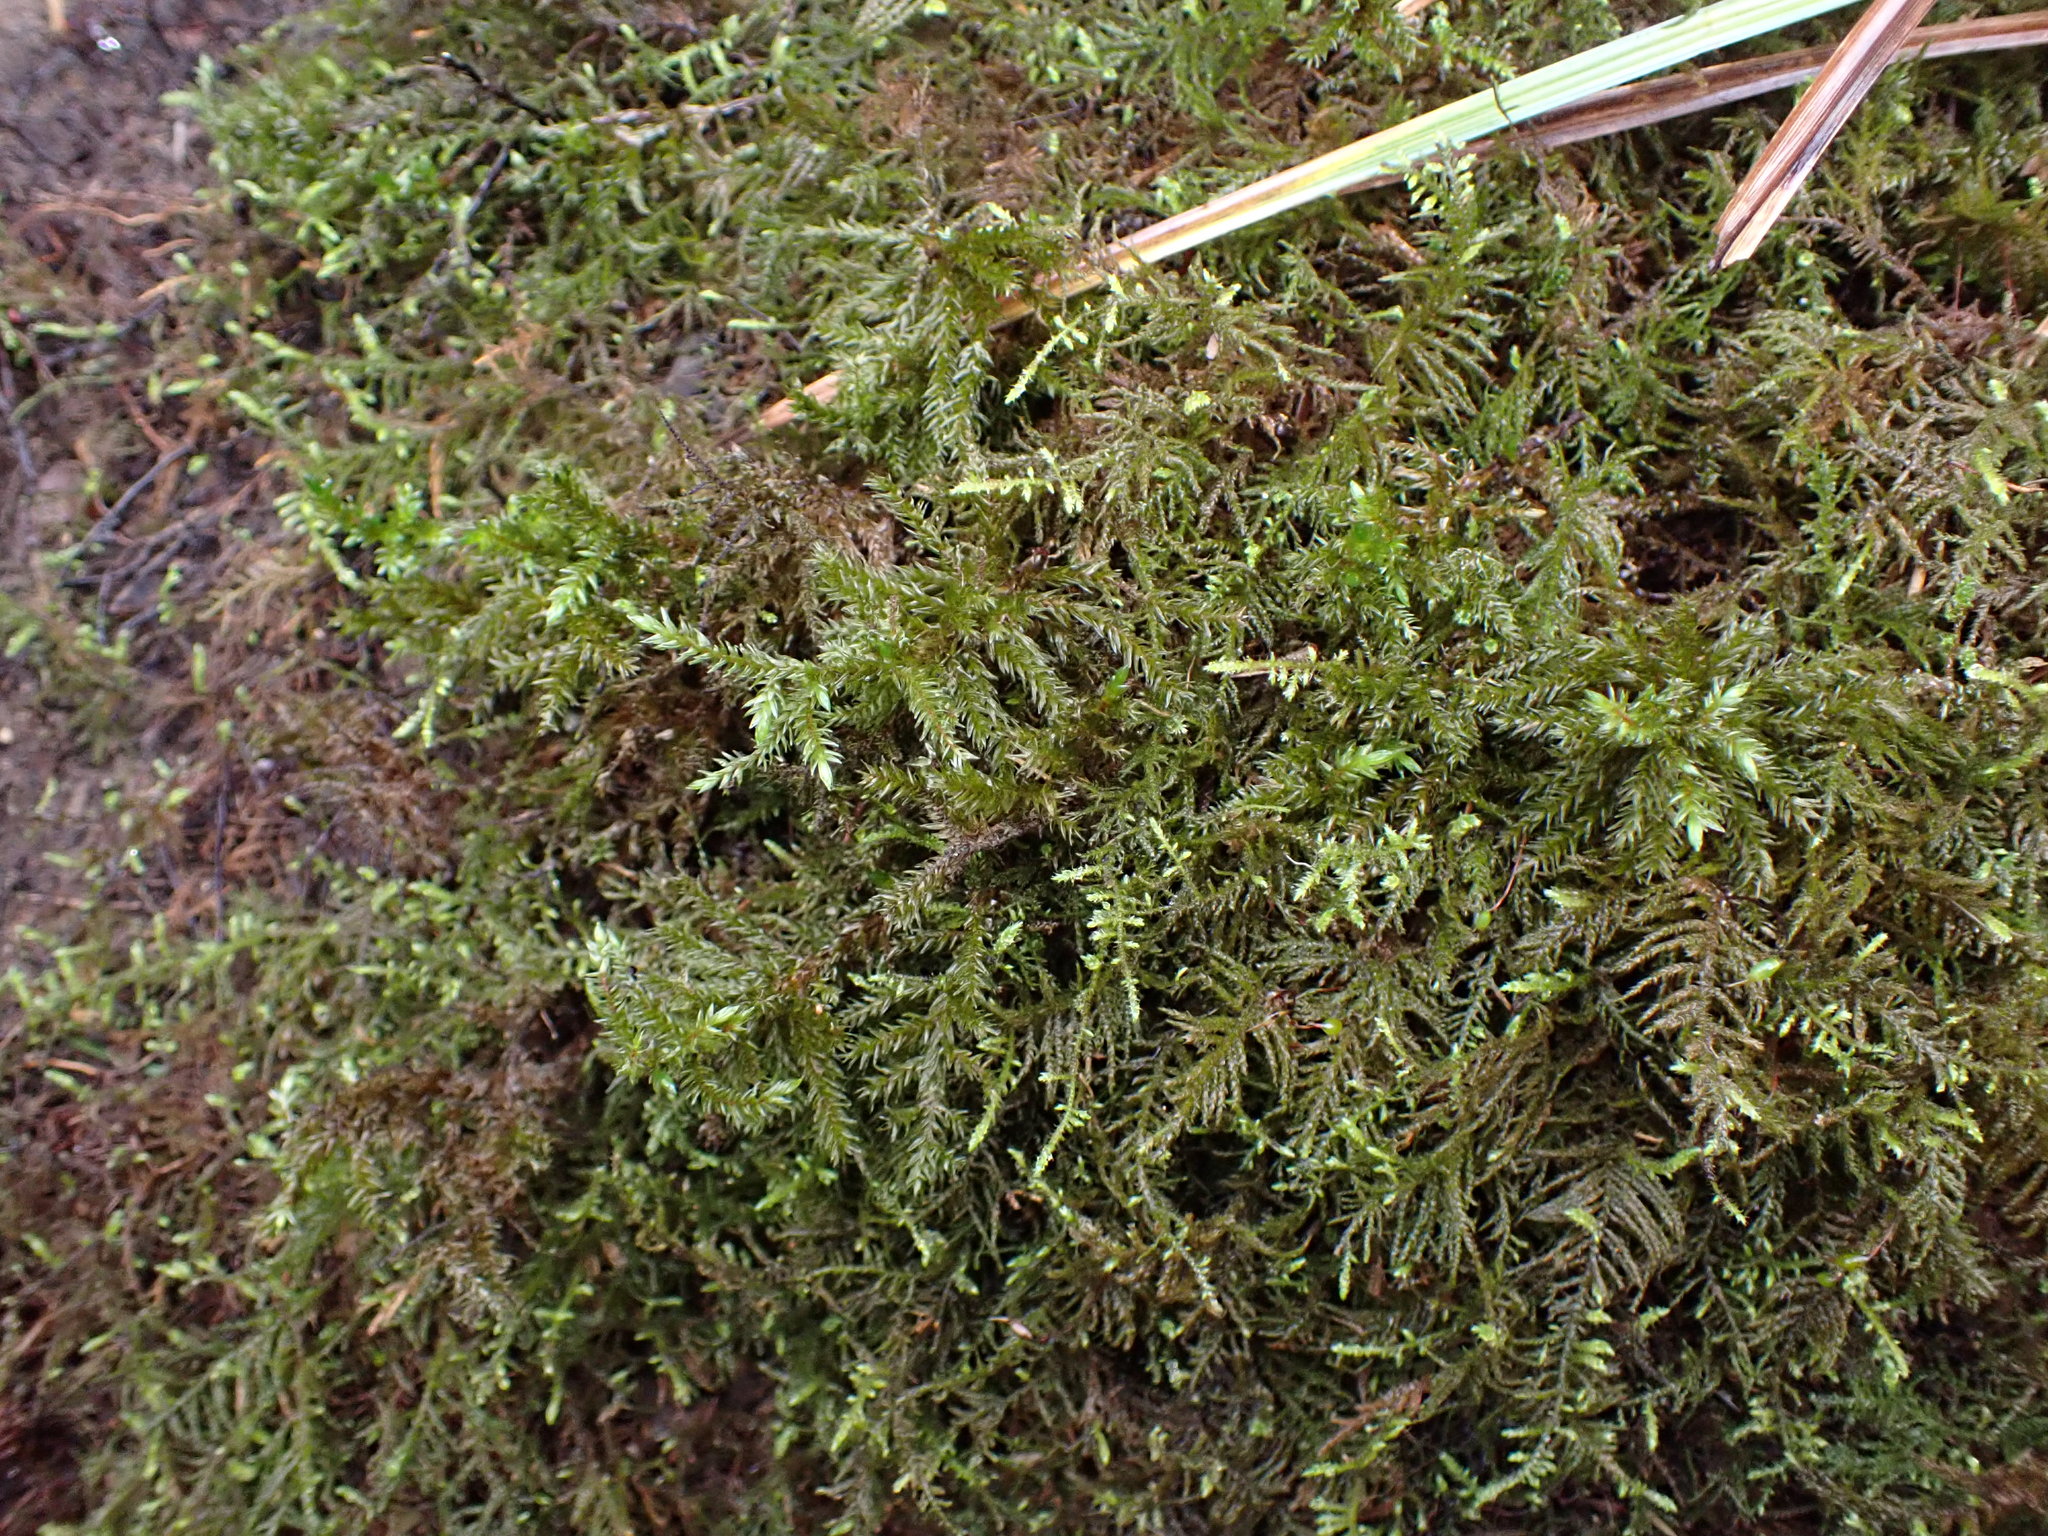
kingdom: Plantae
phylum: Bryophyta
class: Bryopsida
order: Hypnales
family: Climaciaceae
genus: Climacium
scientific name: Climacium dendroides
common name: Northern tree moss
